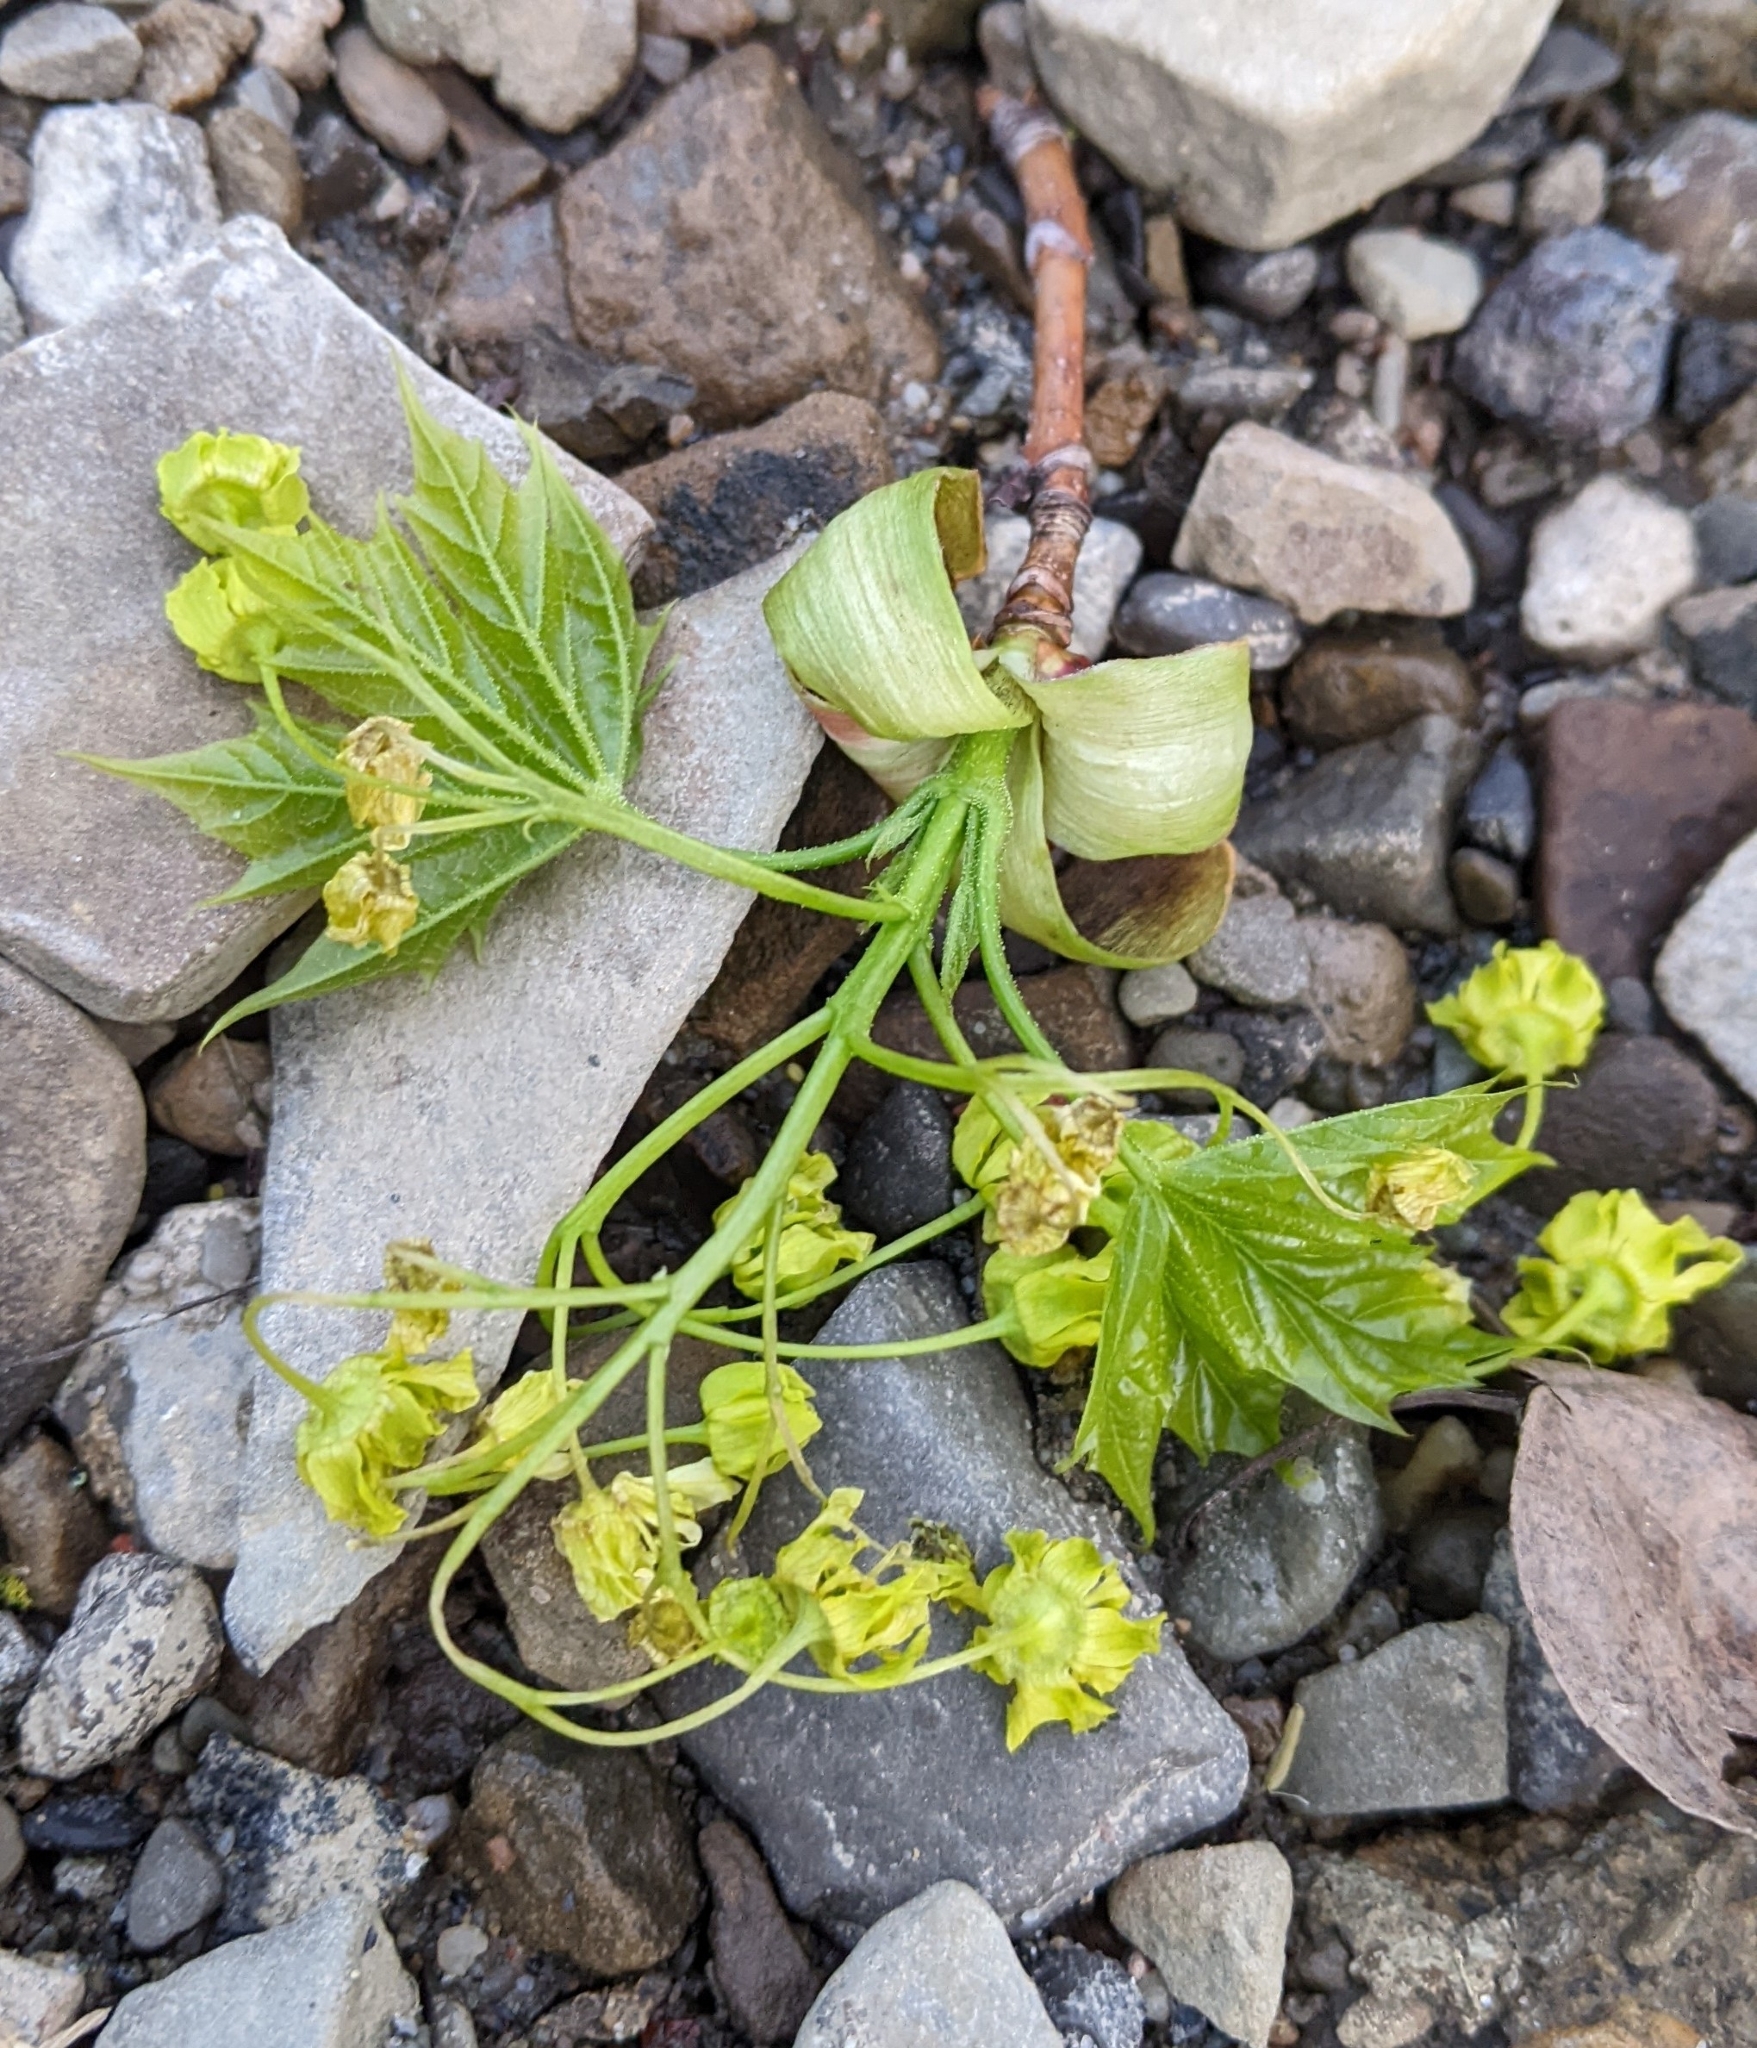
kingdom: Plantae
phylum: Tracheophyta
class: Magnoliopsida
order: Sapindales
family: Sapindaceae
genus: Acer
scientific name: Acer platanoides
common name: Norway maple
